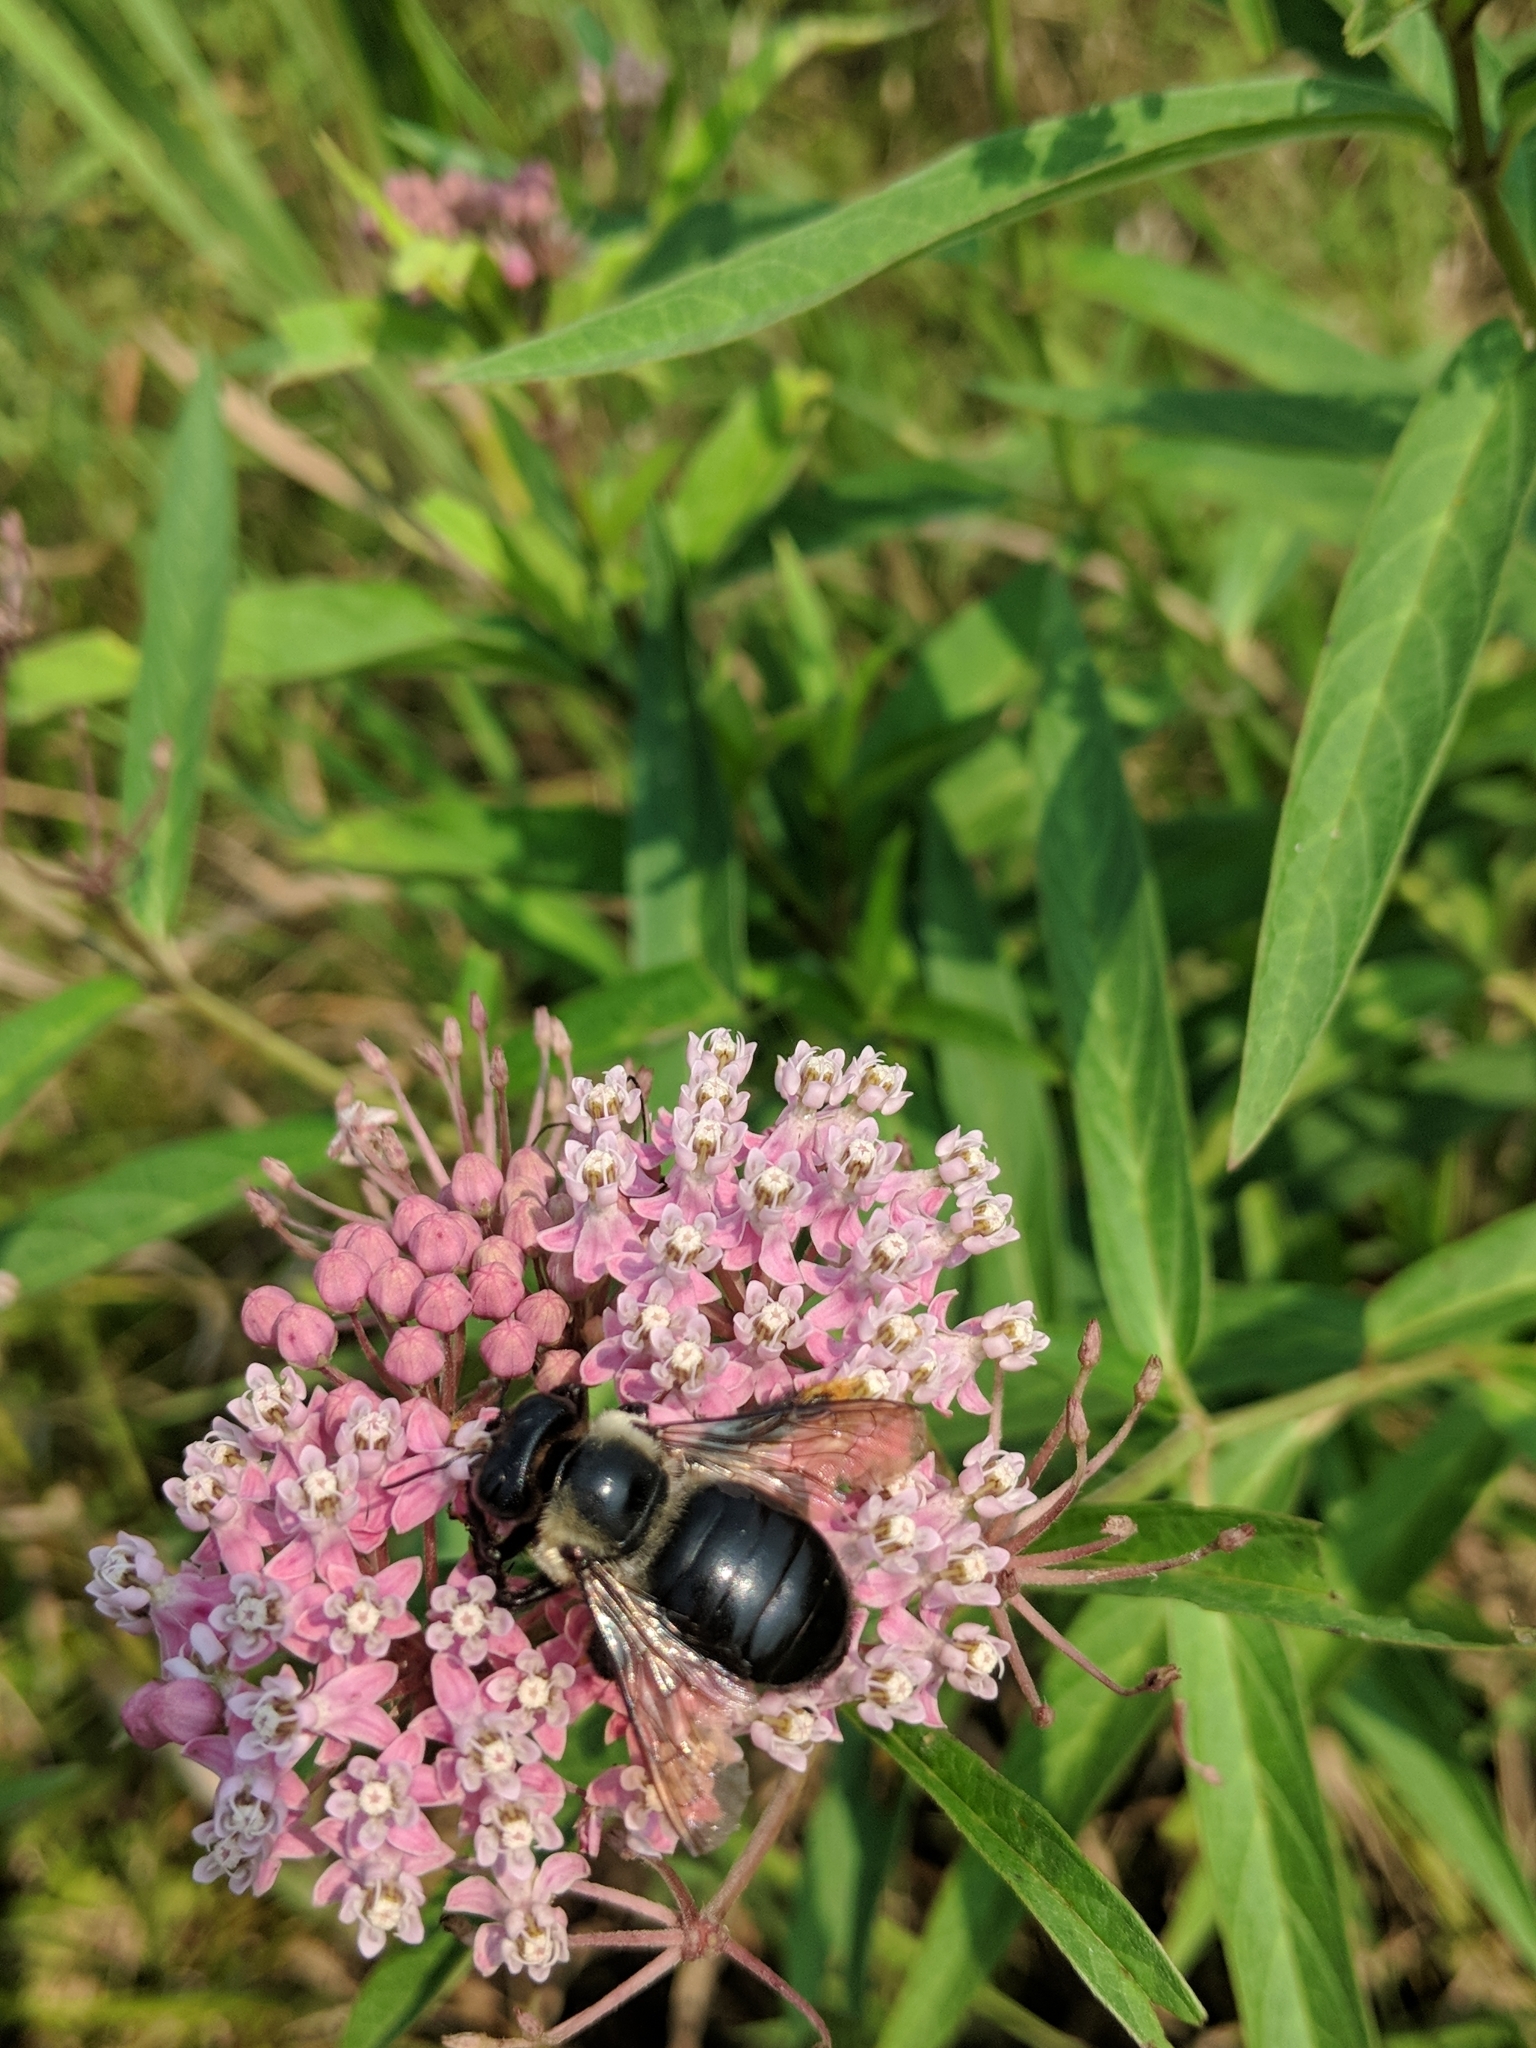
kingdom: Animalia
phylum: Arthropoda
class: Insecta
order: Hymenoptera
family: Apidae
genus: Xylocopa
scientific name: Xylocopa virginica
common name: Carpenter bee
